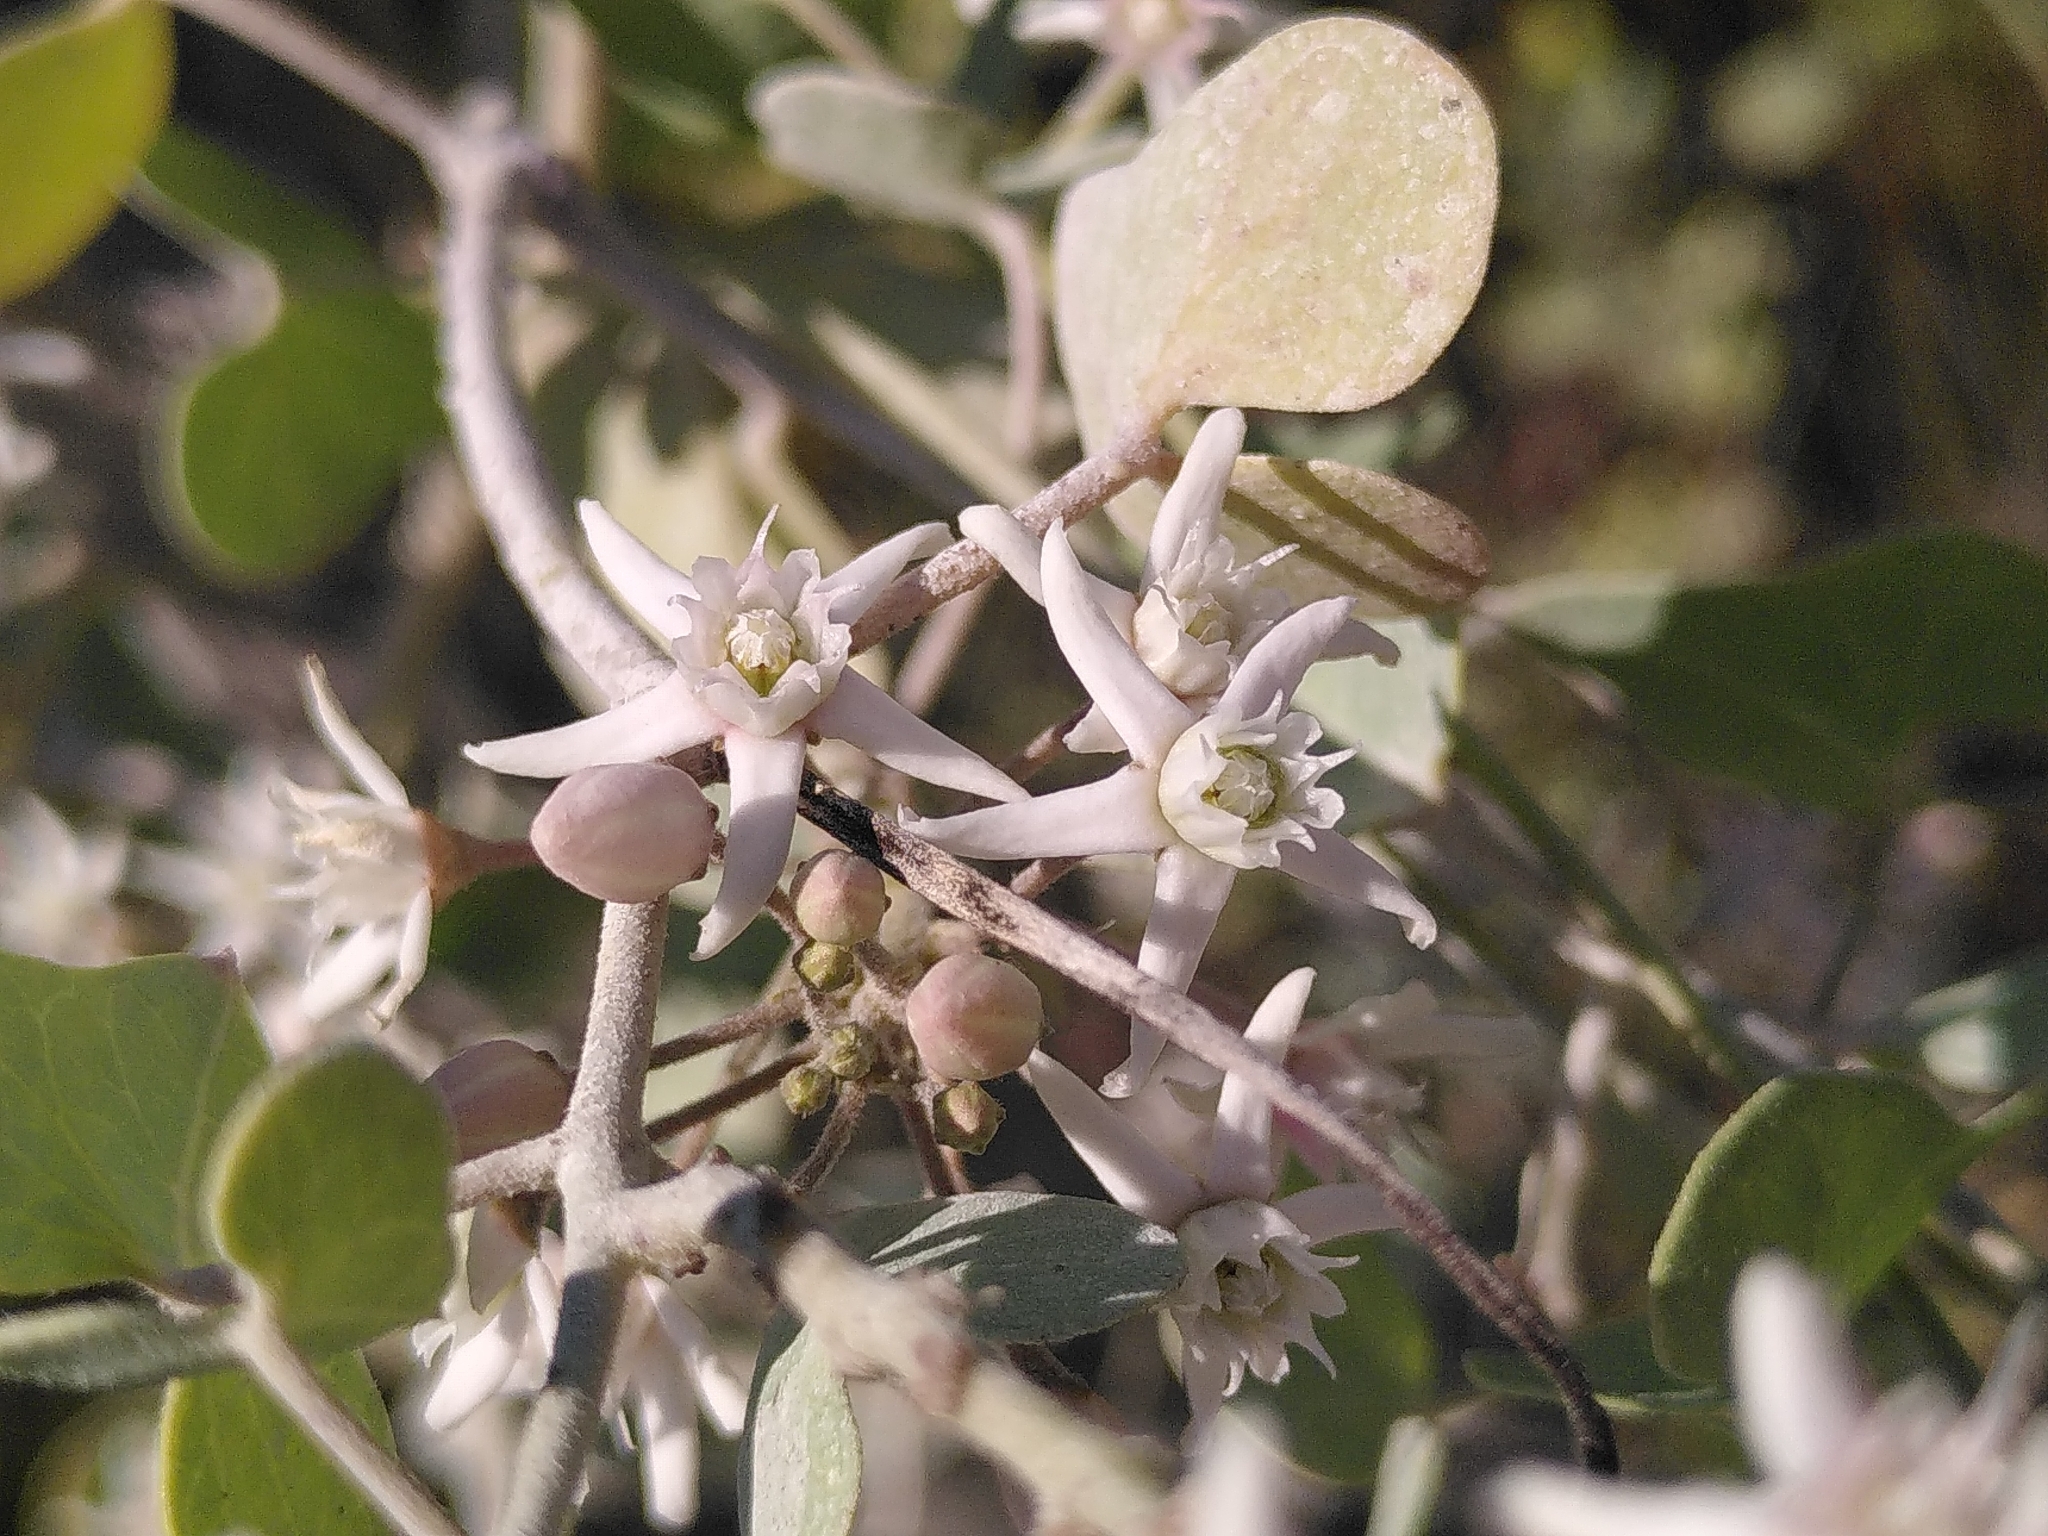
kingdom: Plantae
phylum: Tracheophyta
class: Magnoliopsida
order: Gentianales
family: Apocynaceae
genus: Cynanchum
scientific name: Cynanchum acutum
